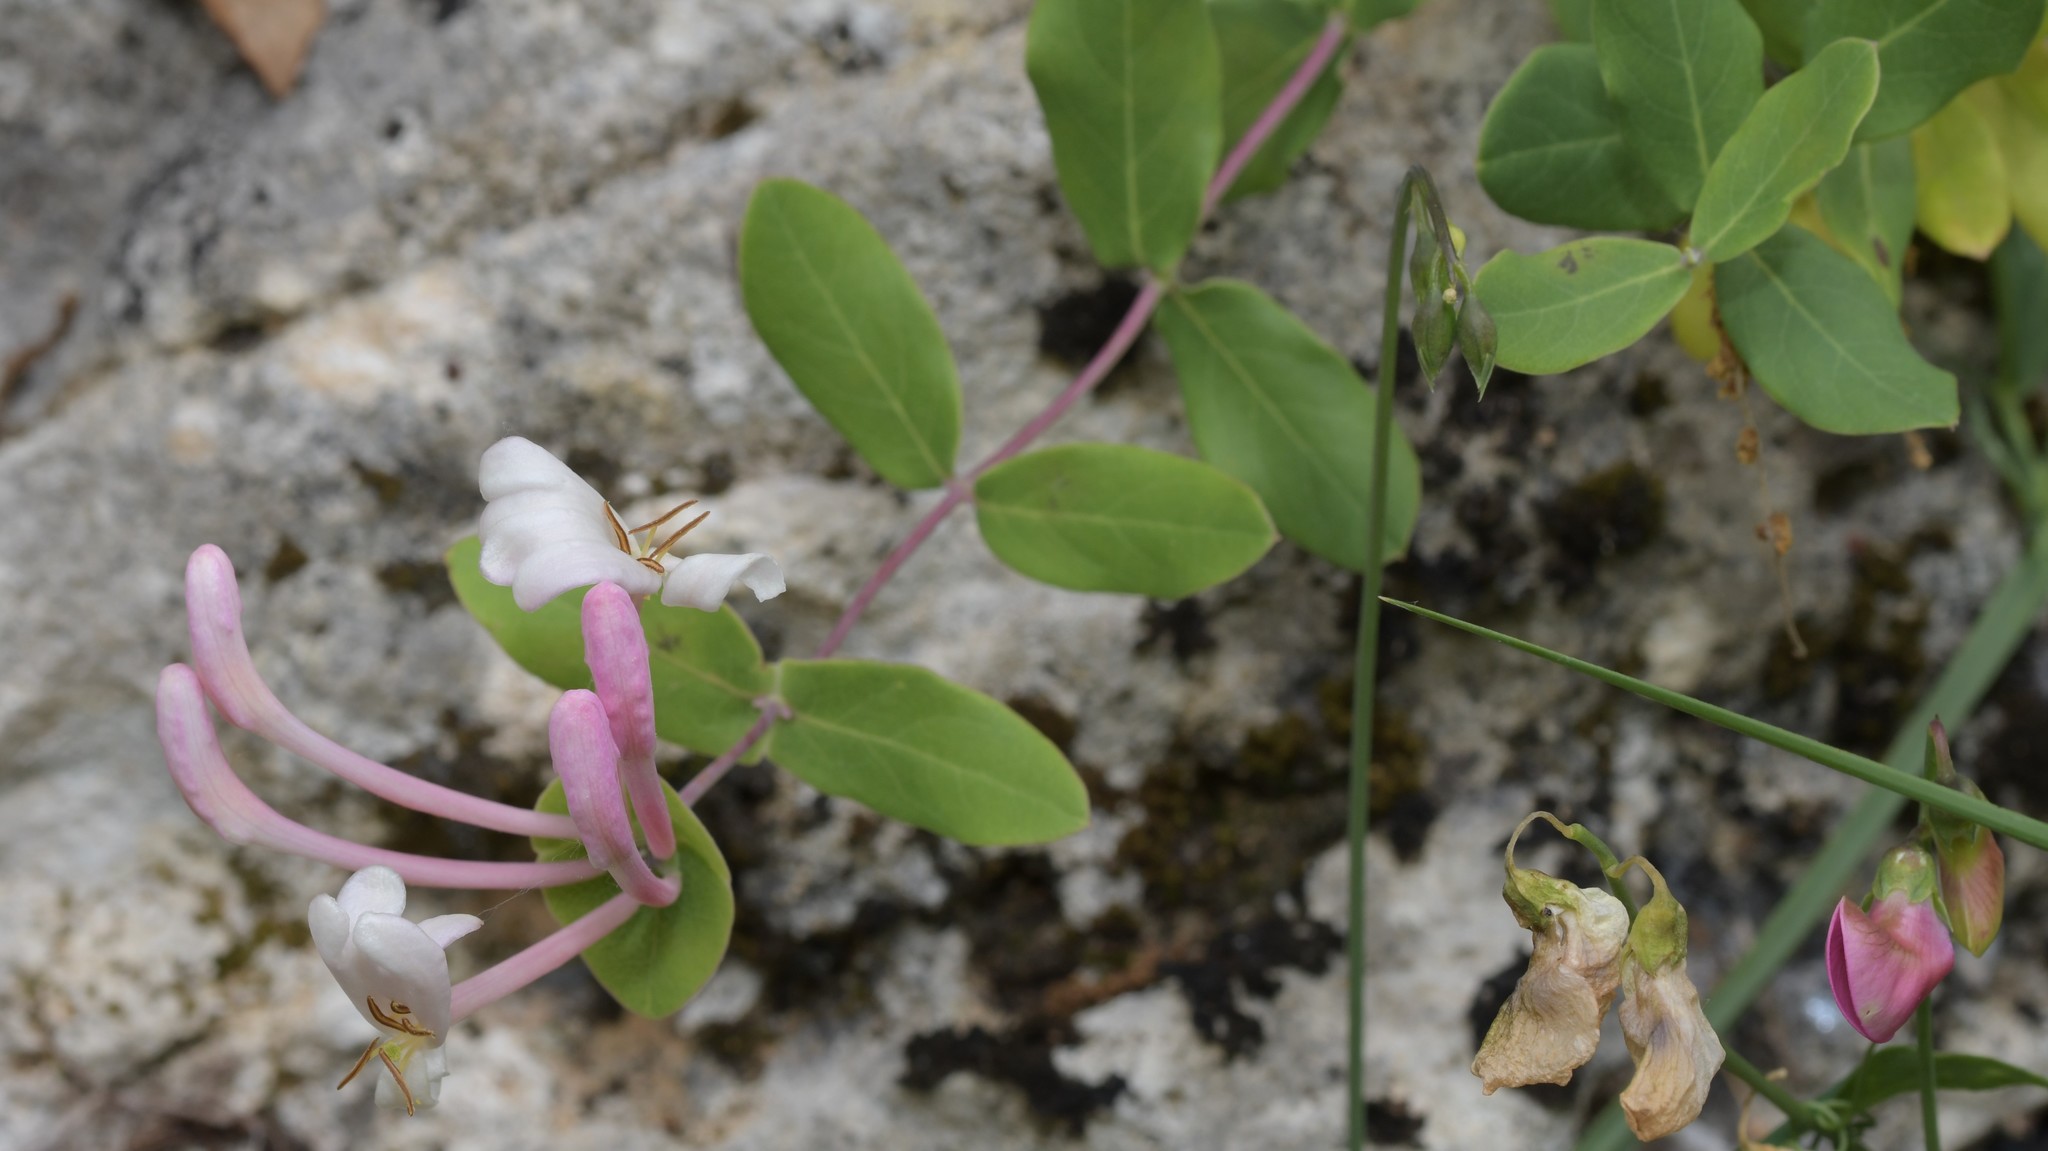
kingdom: Plantae
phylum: Tracheophyta
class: Magnoliopsida
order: Dipsacales
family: Caprifoliaceae
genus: Lonicera
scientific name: Lonicera implexa
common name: Minorca honeysuckle
